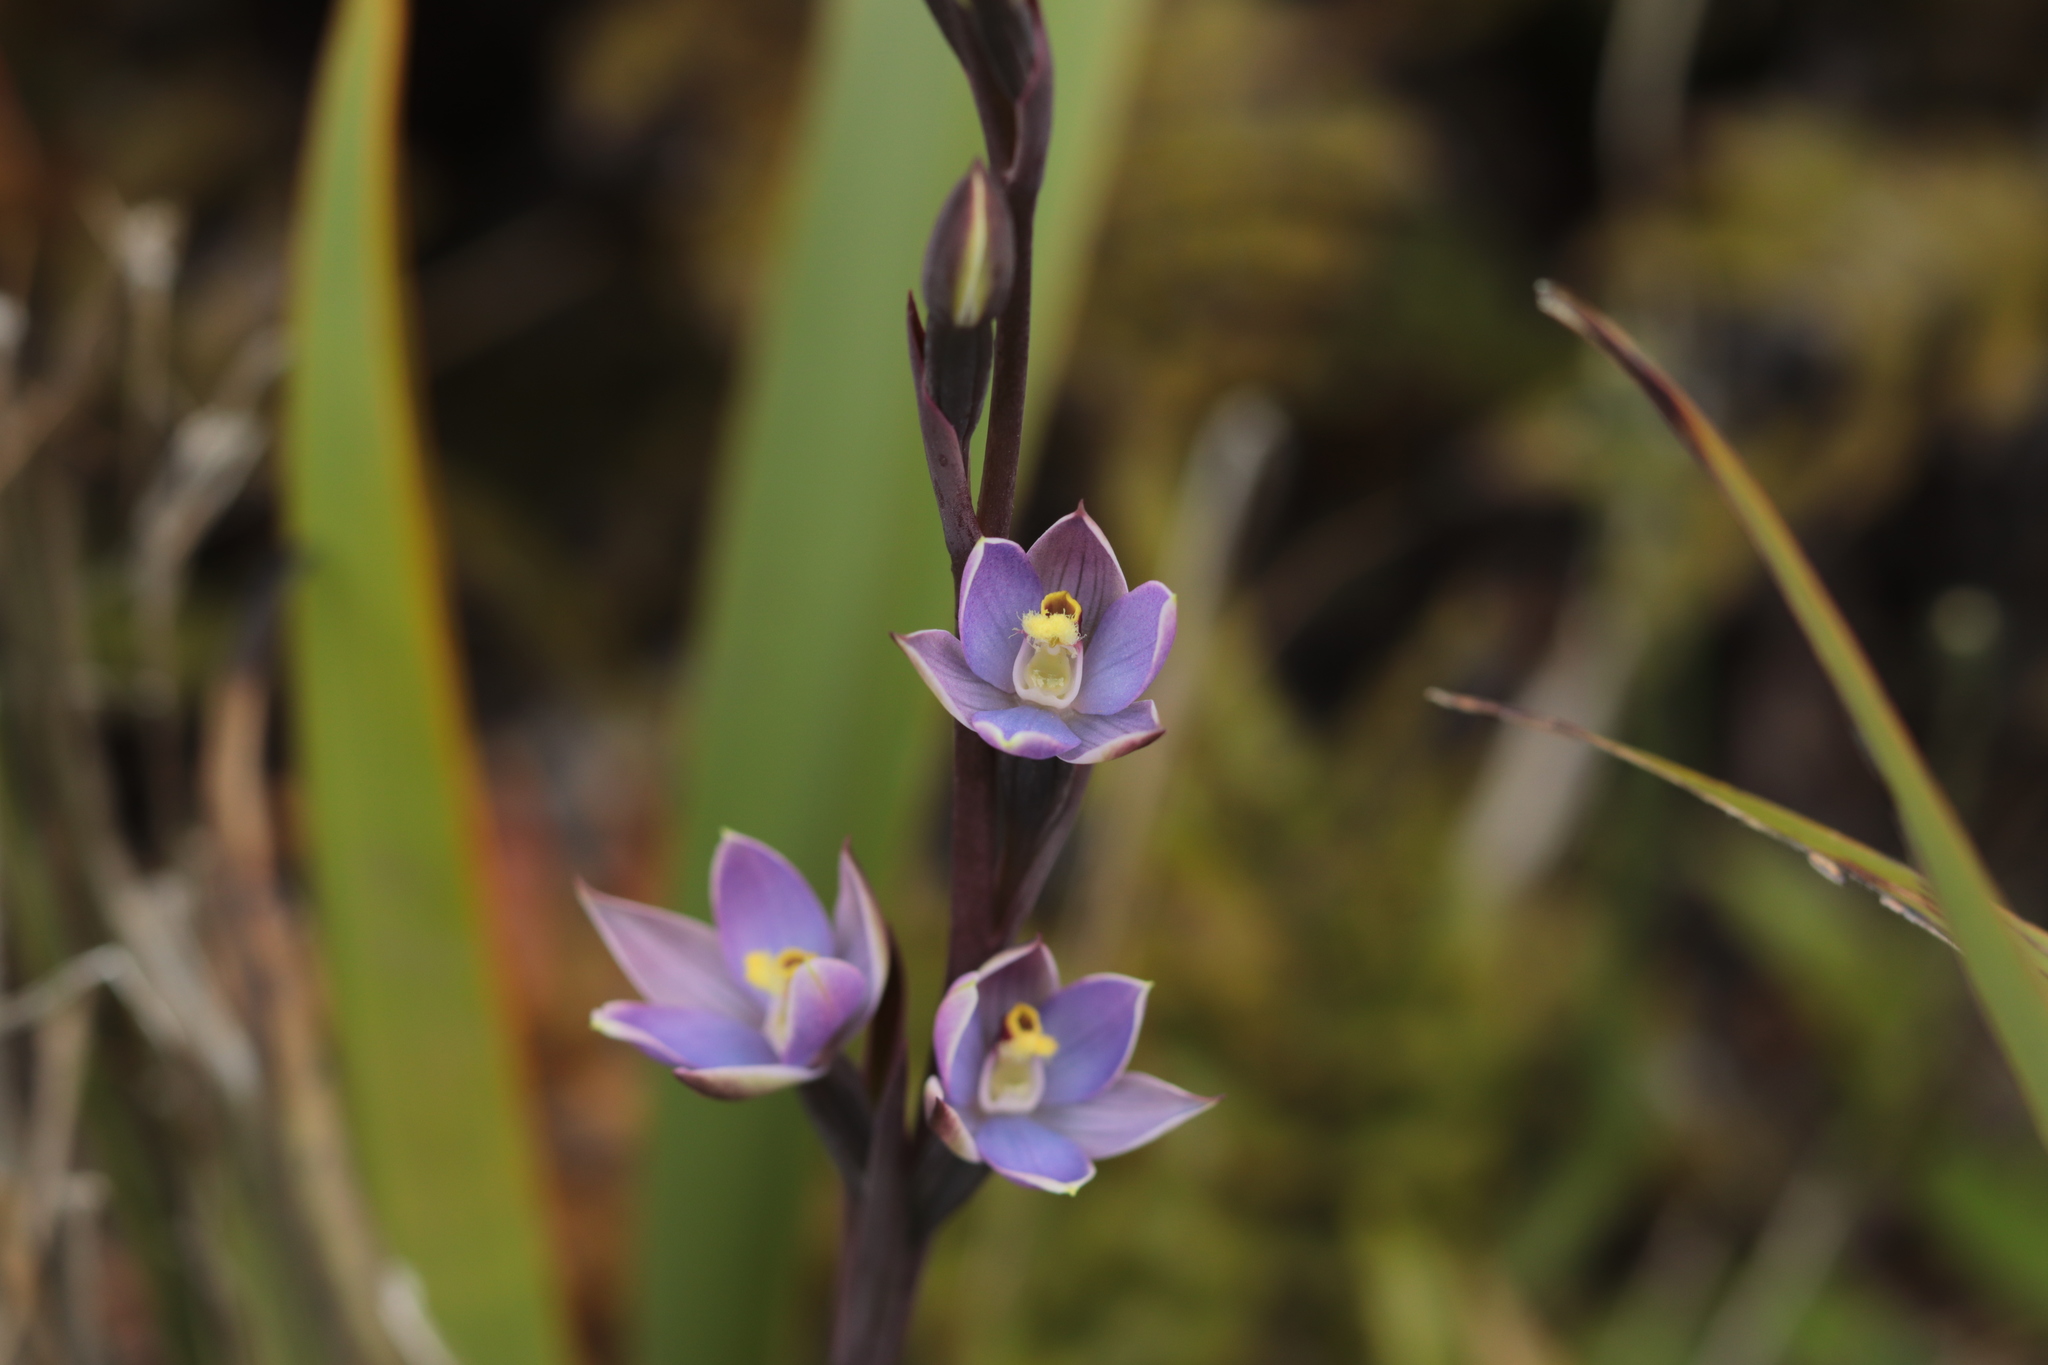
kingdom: Plantae
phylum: Tracheophyta
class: Liliopsida
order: Asparagales
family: Orchidaceae
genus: Thelymitra
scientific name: Thelymitra hatchii
